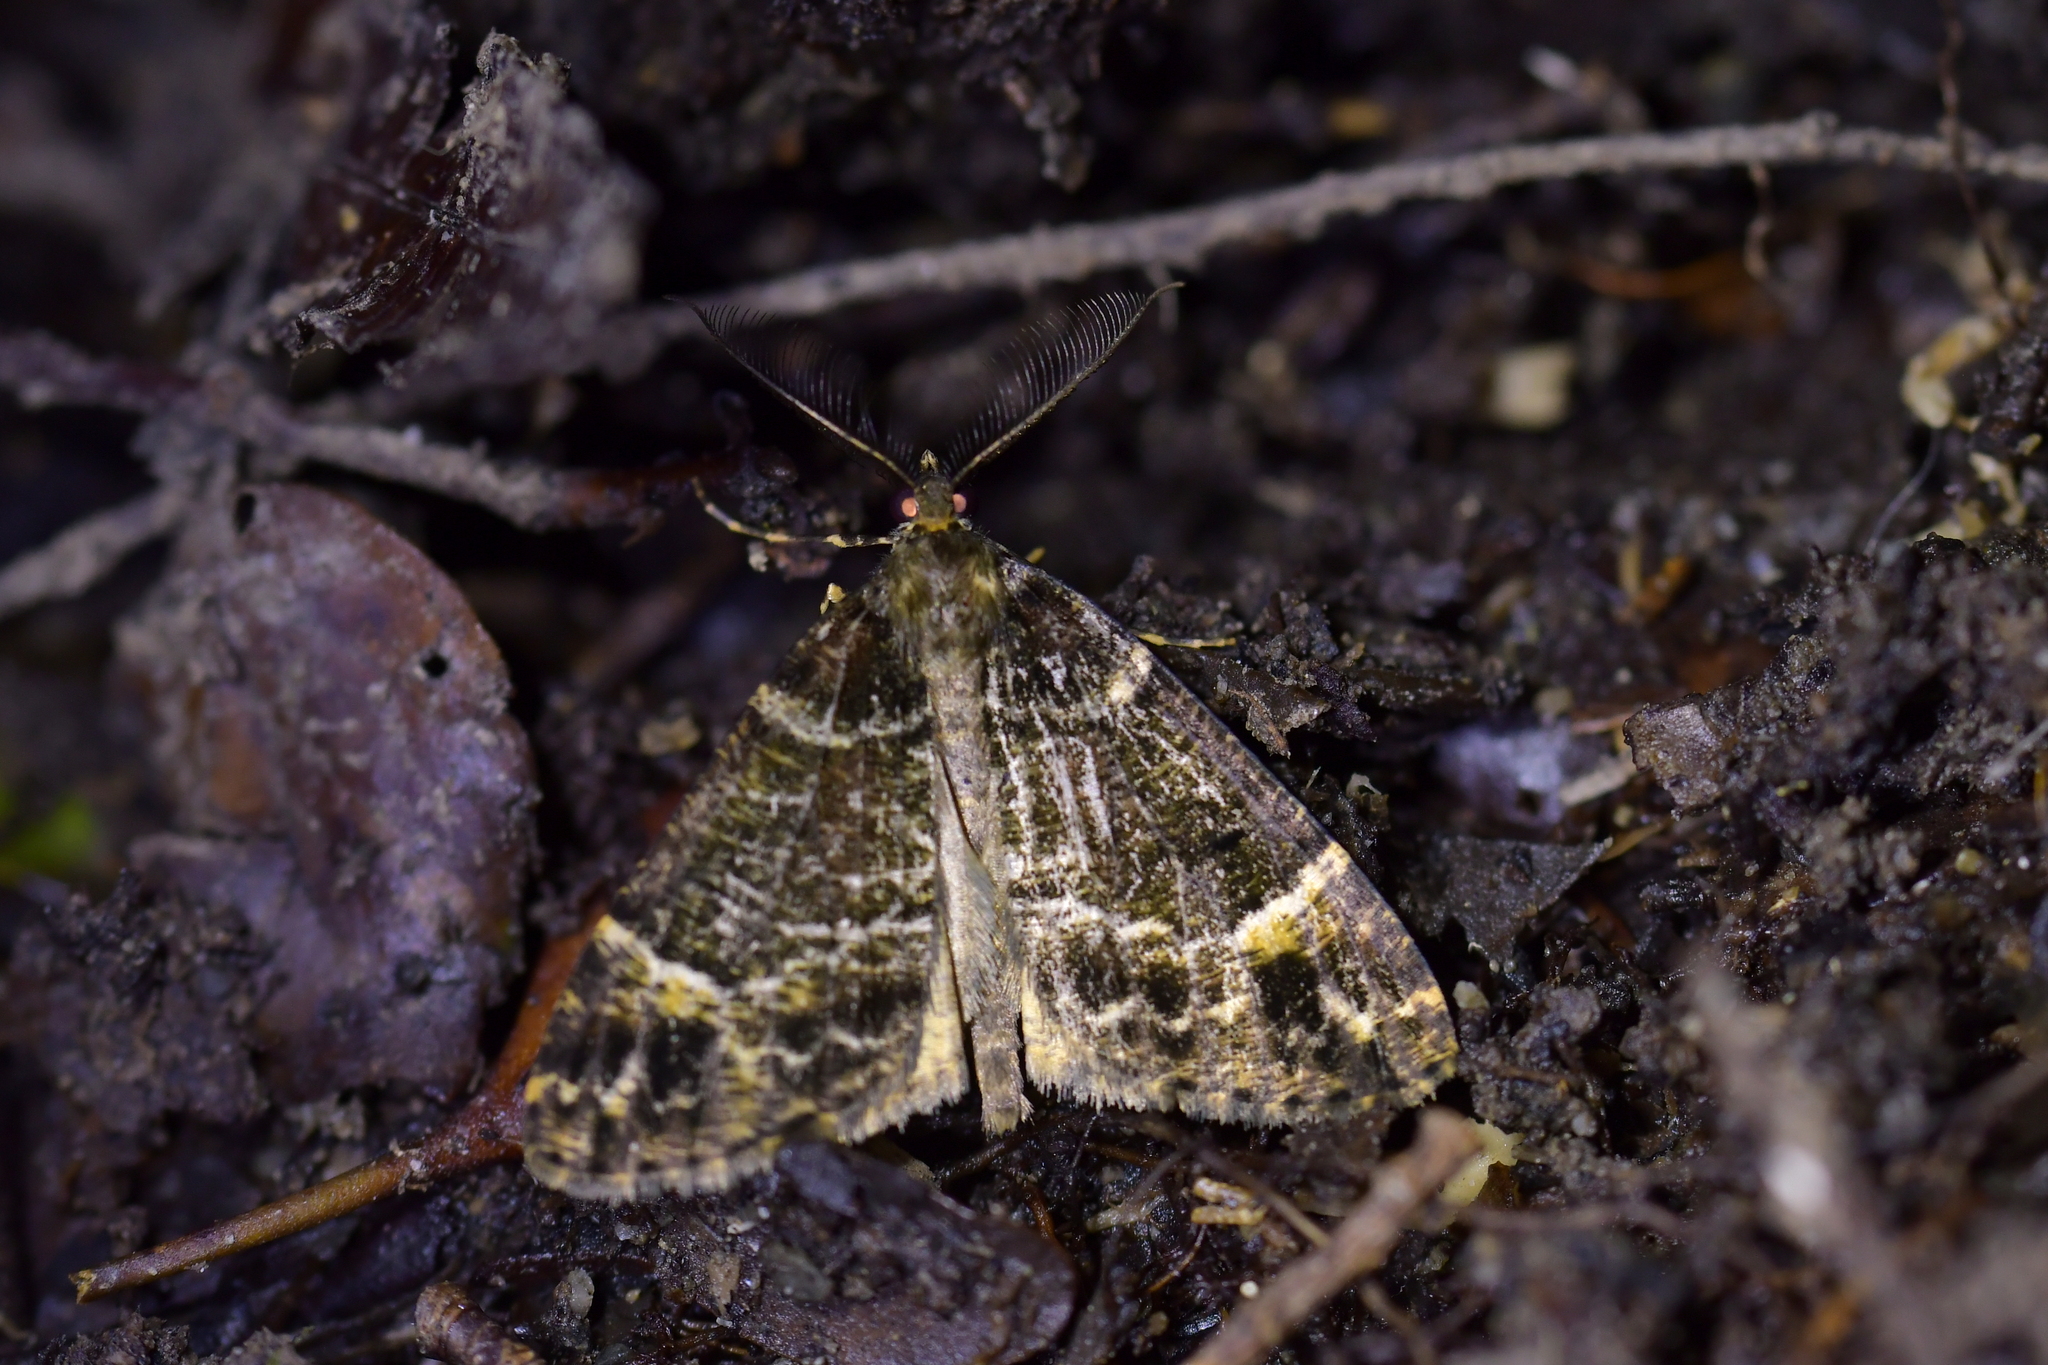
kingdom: Animalia
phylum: Arthropoda
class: Insecta
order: Lepidoptera
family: Geometridae
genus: Pseudocoremia
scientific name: Pseudocoremia productata
